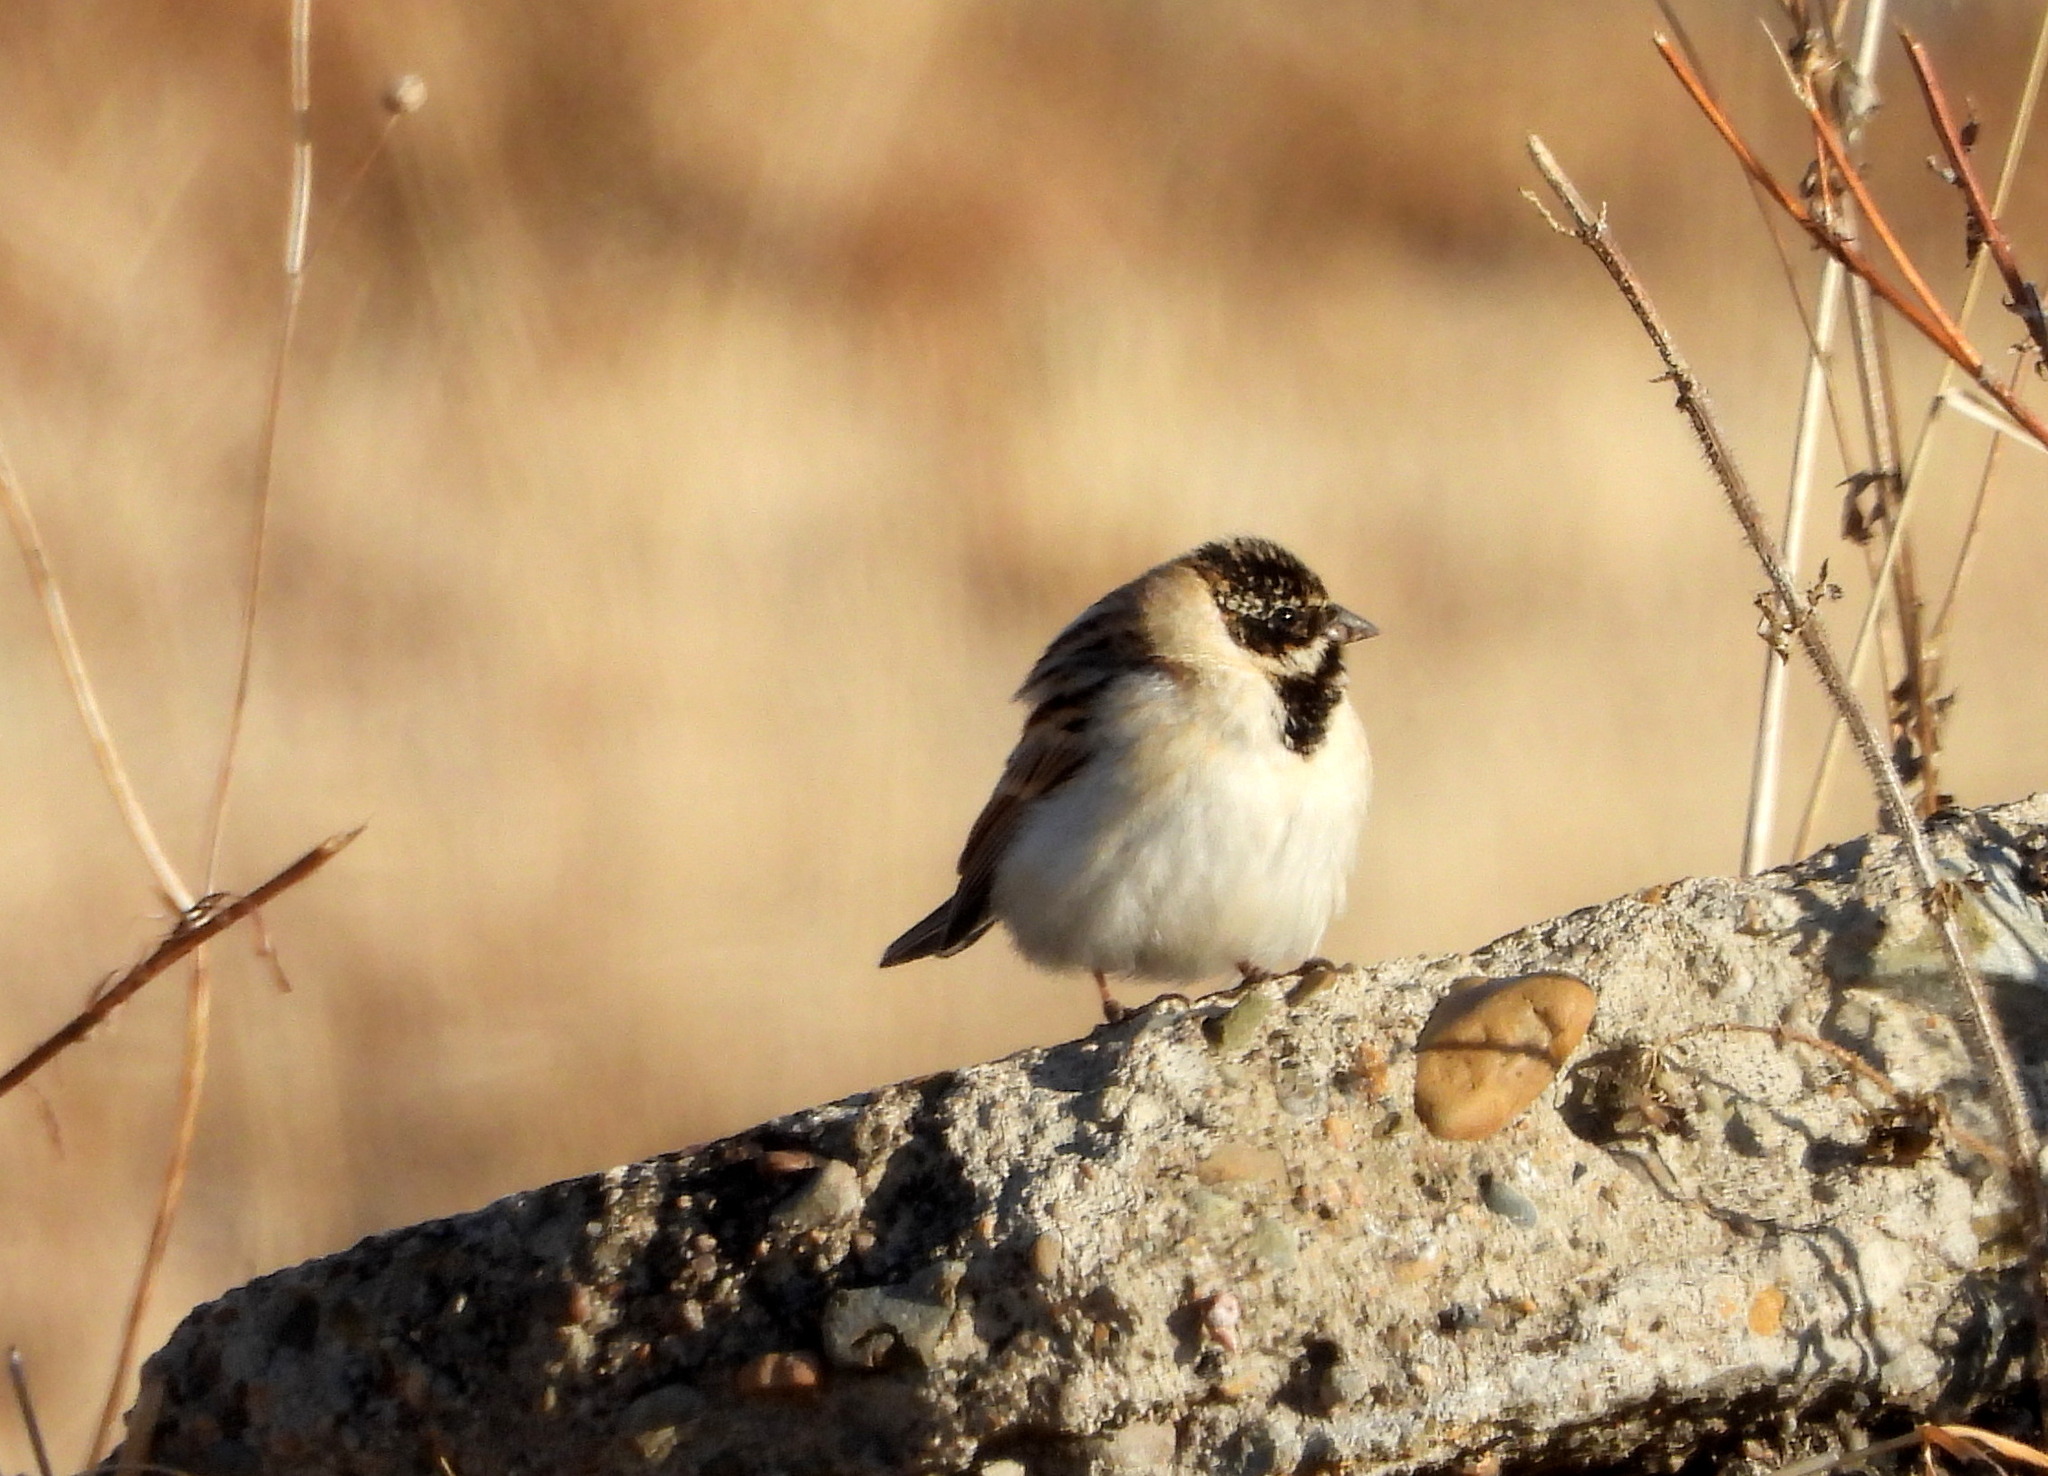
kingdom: Animalia
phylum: Chordata
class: Aves
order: Passeriformes
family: Emberizidae
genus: Emberiza
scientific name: Emberiza pallasi
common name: Pallas's reed bunting
